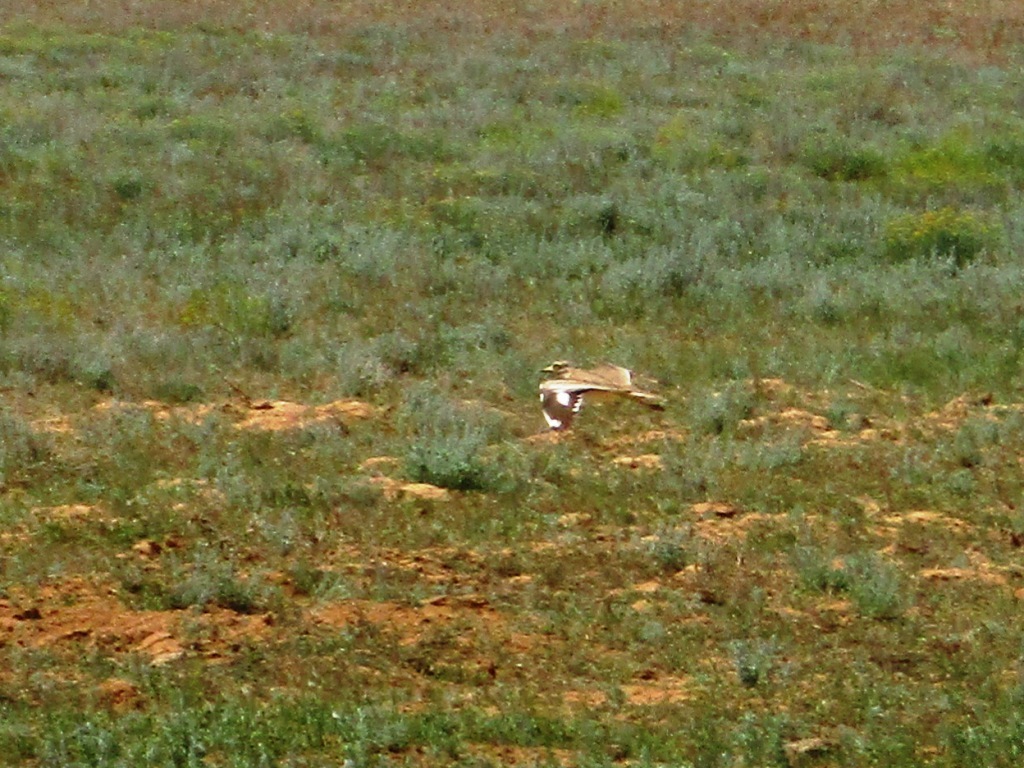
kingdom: Animalia
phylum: Chordata
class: Aves
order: Charadriiformes
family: Burhinidae
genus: Burhinus
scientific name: Burhinus oedicnemus
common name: Eurasian stone-curlew
